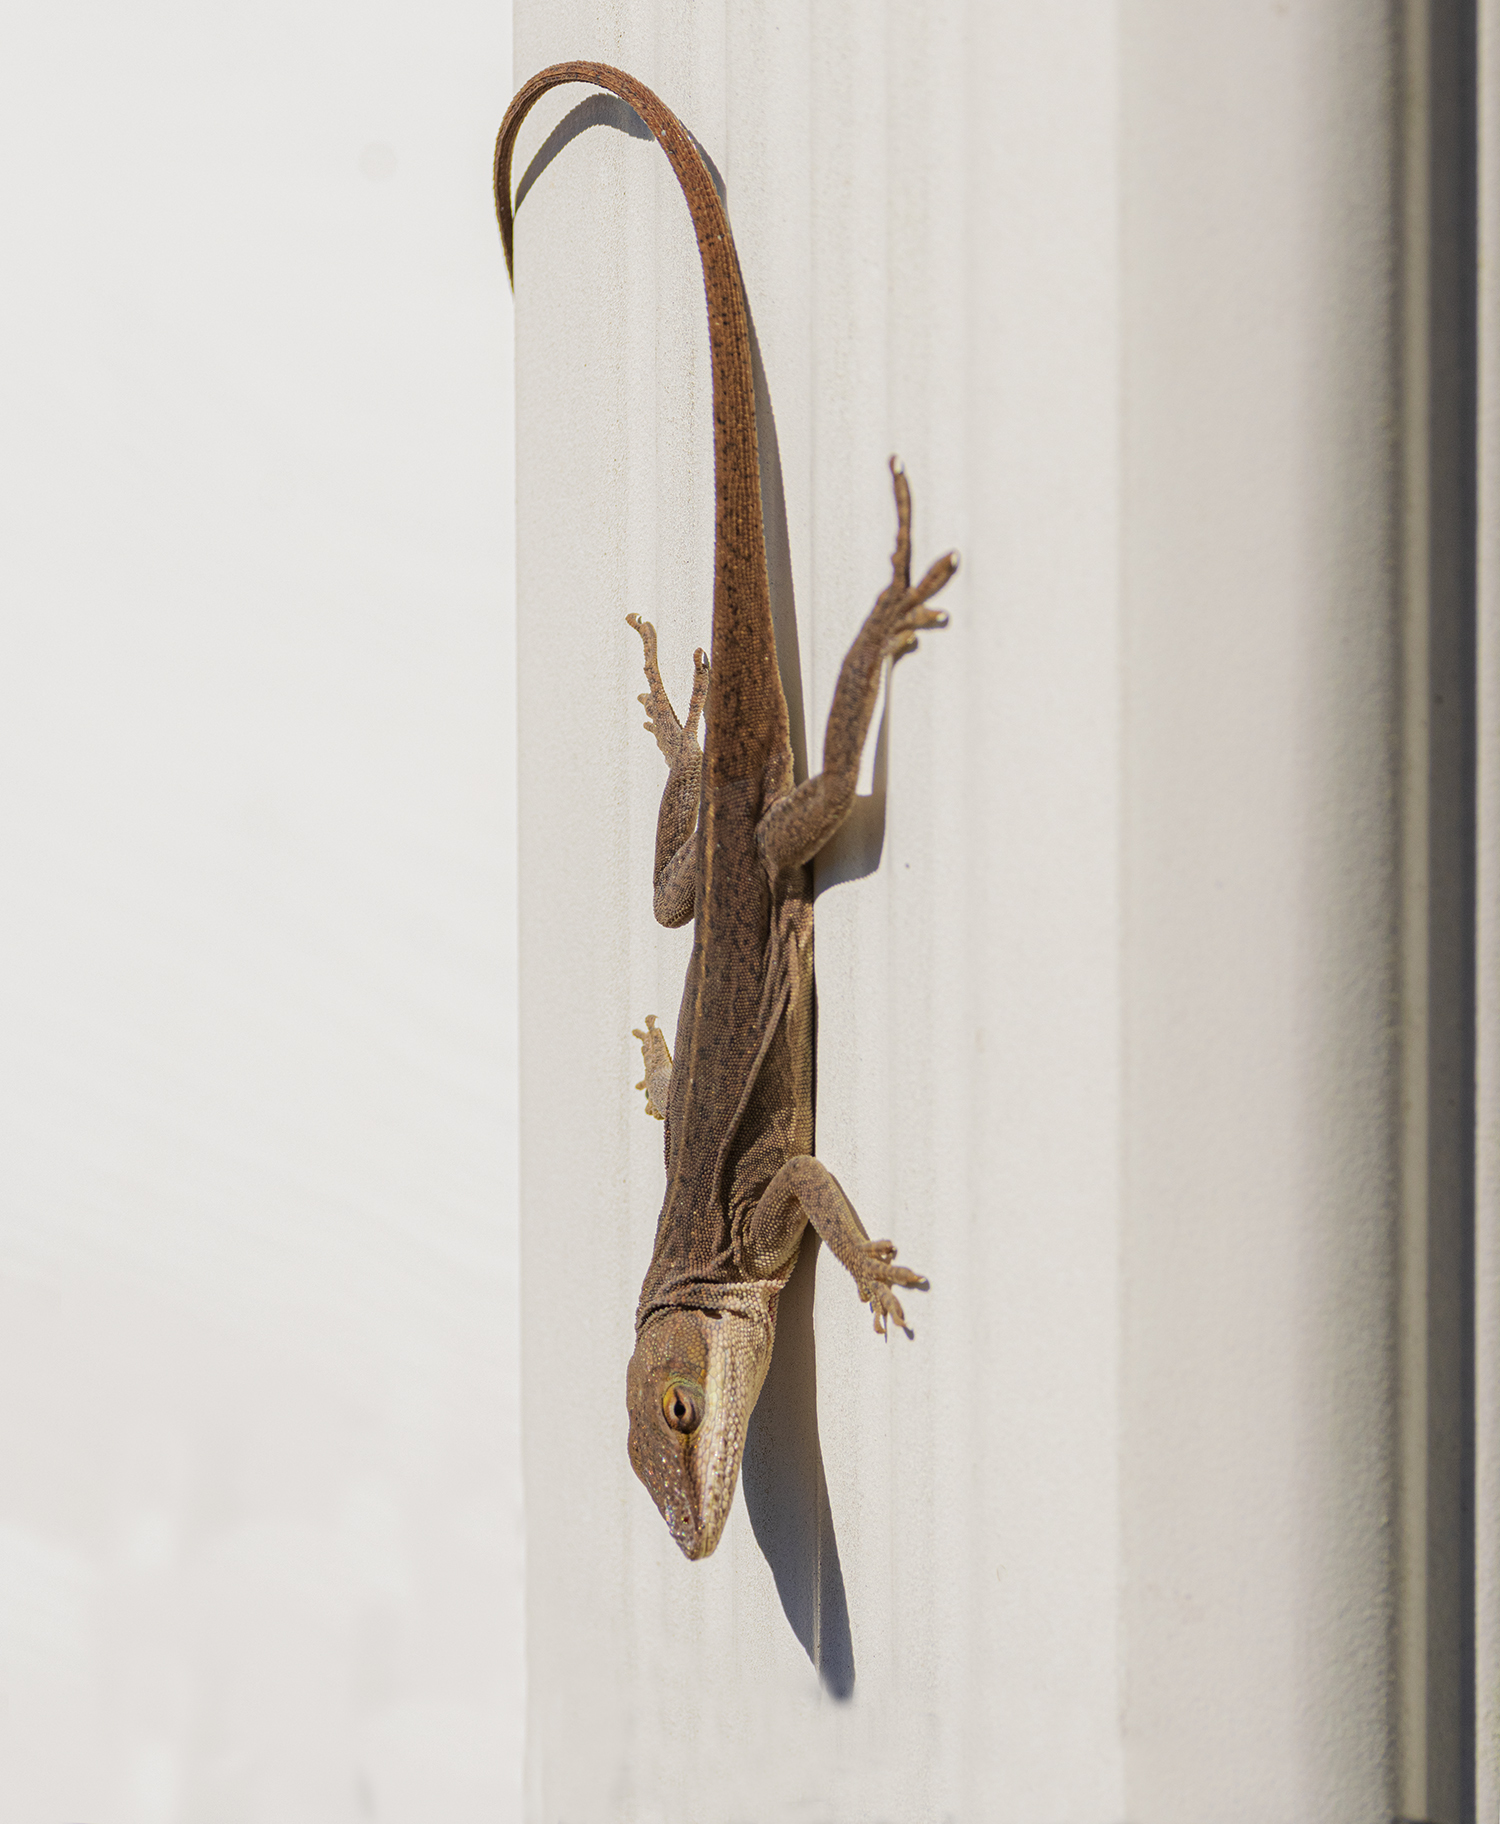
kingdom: Animalia
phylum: Chordata
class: Squamata
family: Dactyloidae
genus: Anolis
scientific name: Anolis carolinensis
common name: Green anole
